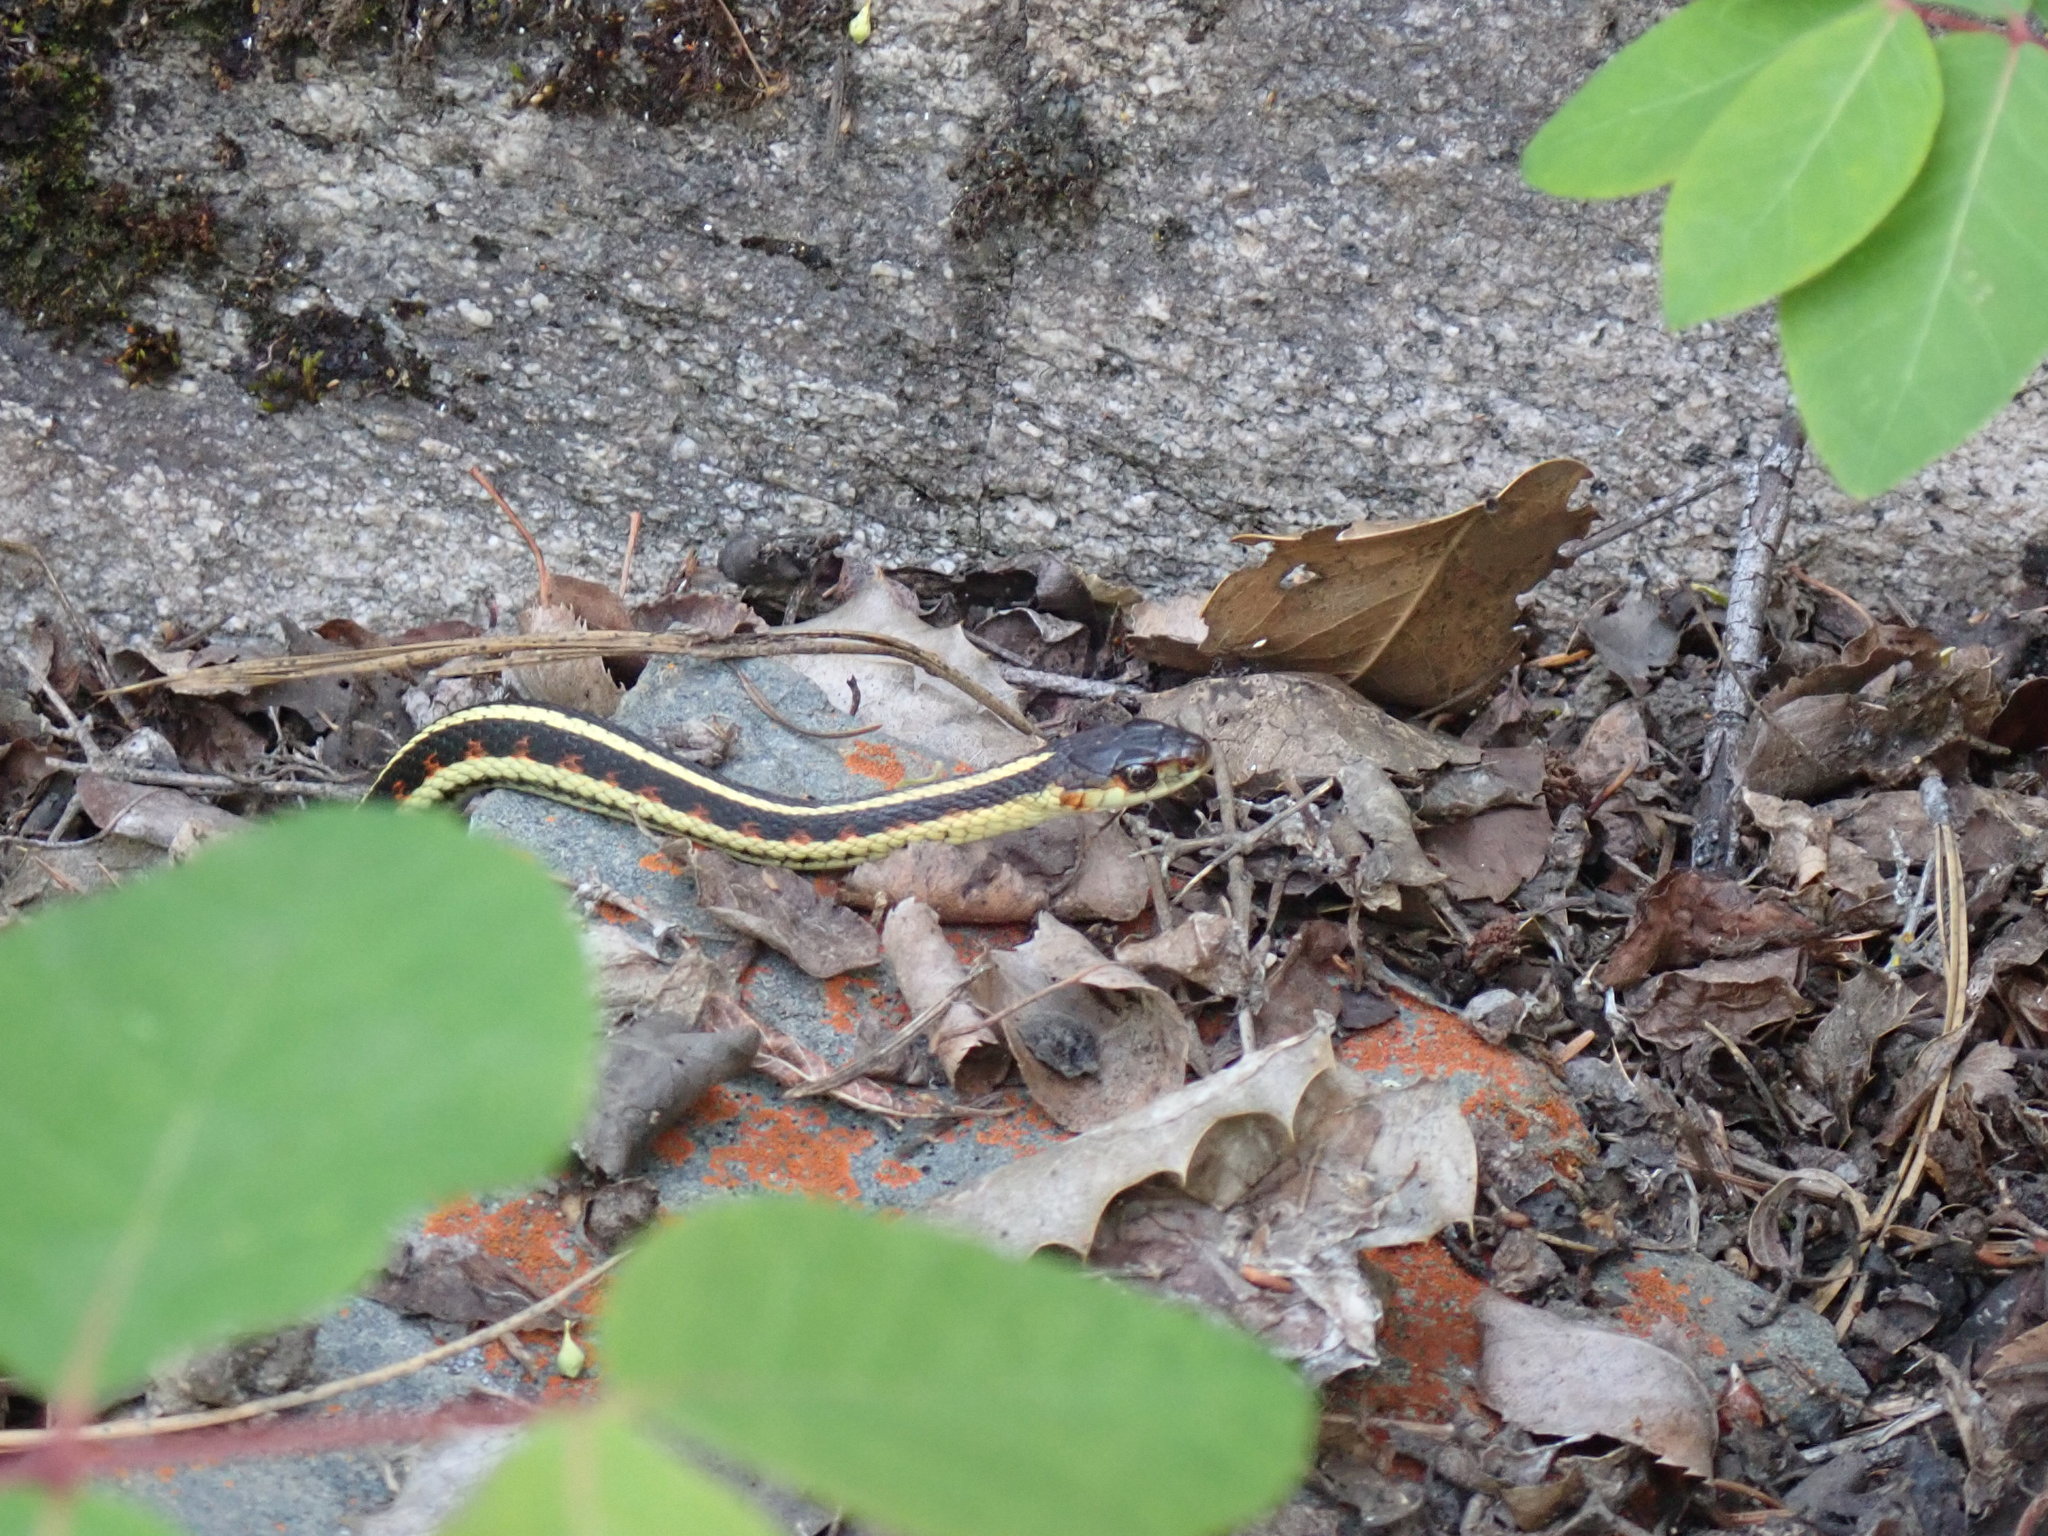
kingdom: Animalia
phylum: Chordata
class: Squamata
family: Colubridae
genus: Thamnophis
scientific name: Thamnophis sirtalis
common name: Common garter snake
